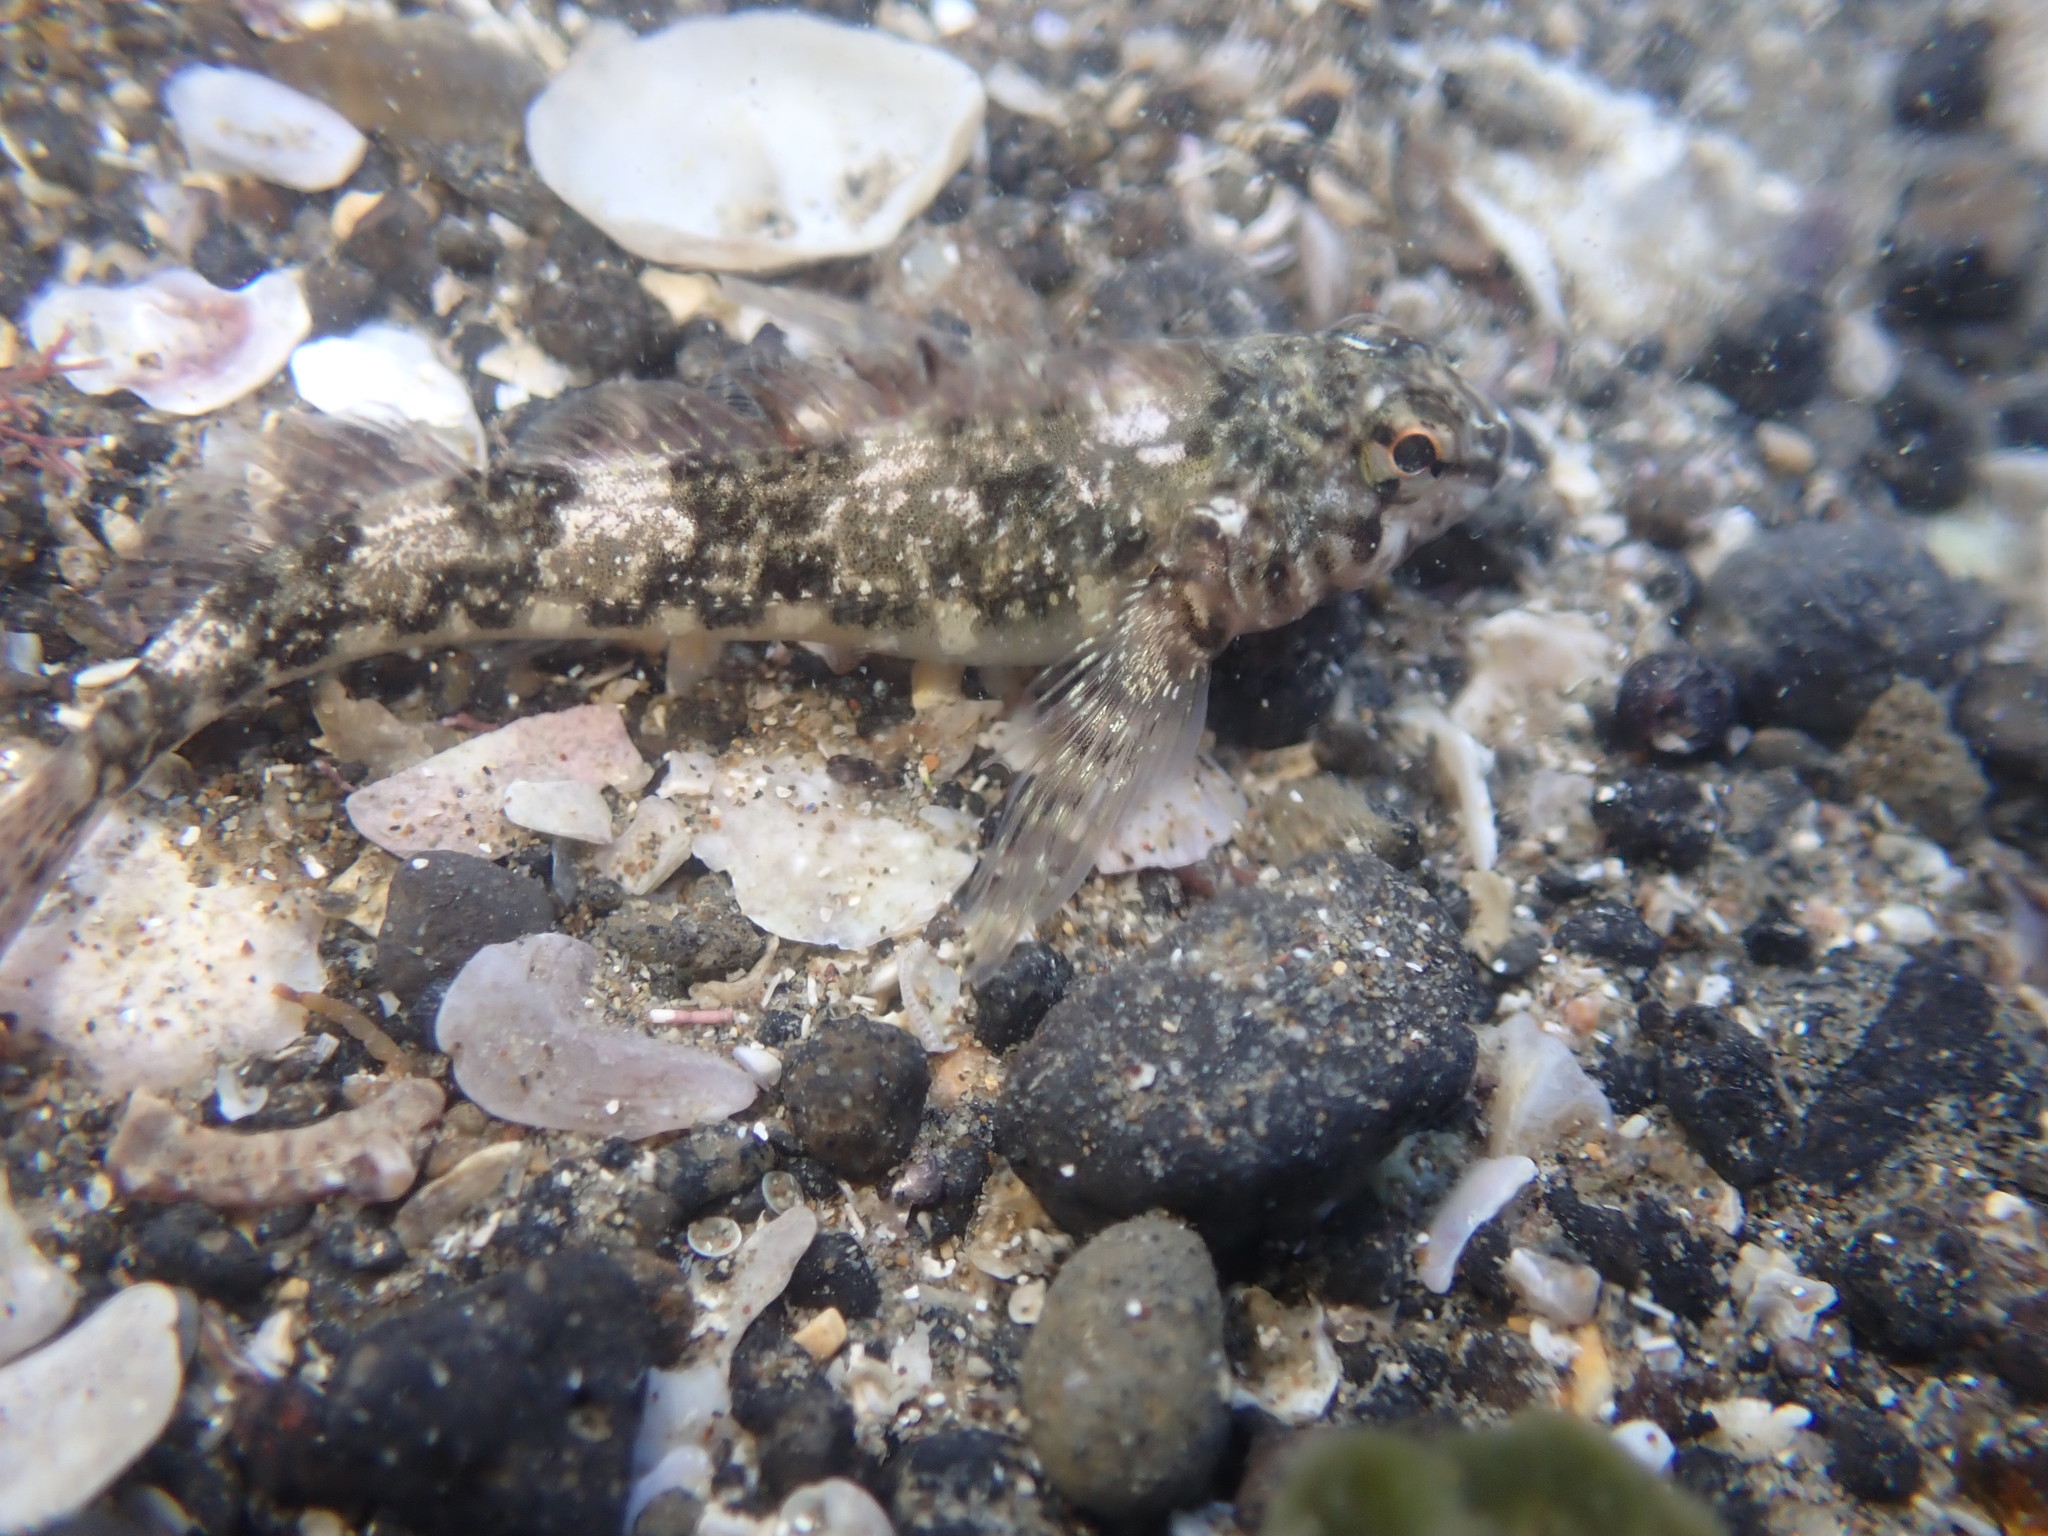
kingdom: Animalia
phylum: Chordata
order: Perciformes
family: Tripterygiidae
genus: Bellapiscis
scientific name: Bellapiscis medius
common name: Twister
